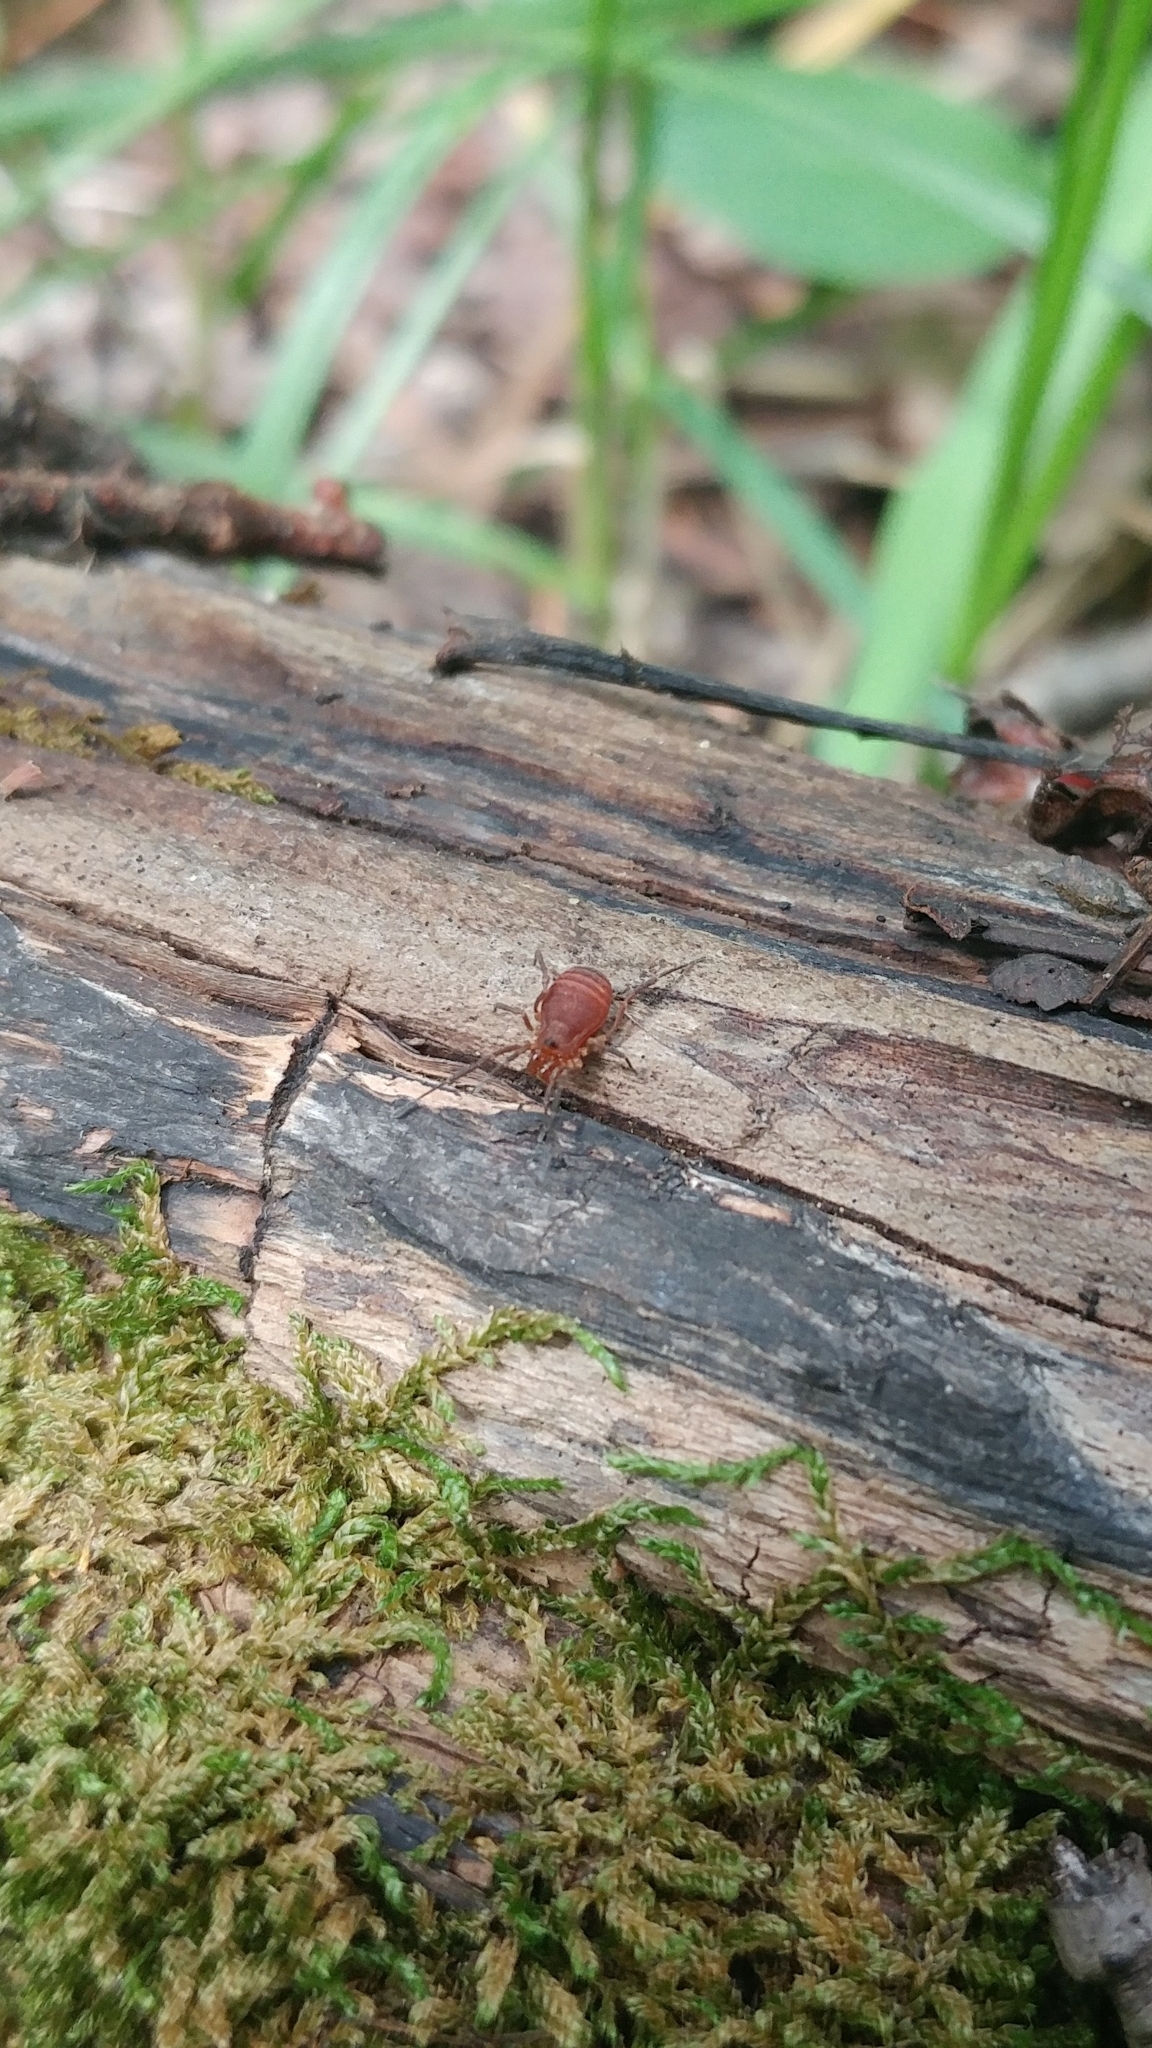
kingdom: Animalia
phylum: Arthropoda
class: Arachnida
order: Opiliones
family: Paranonychidae
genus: Sclerobunus
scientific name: Sclerobunus robustus
